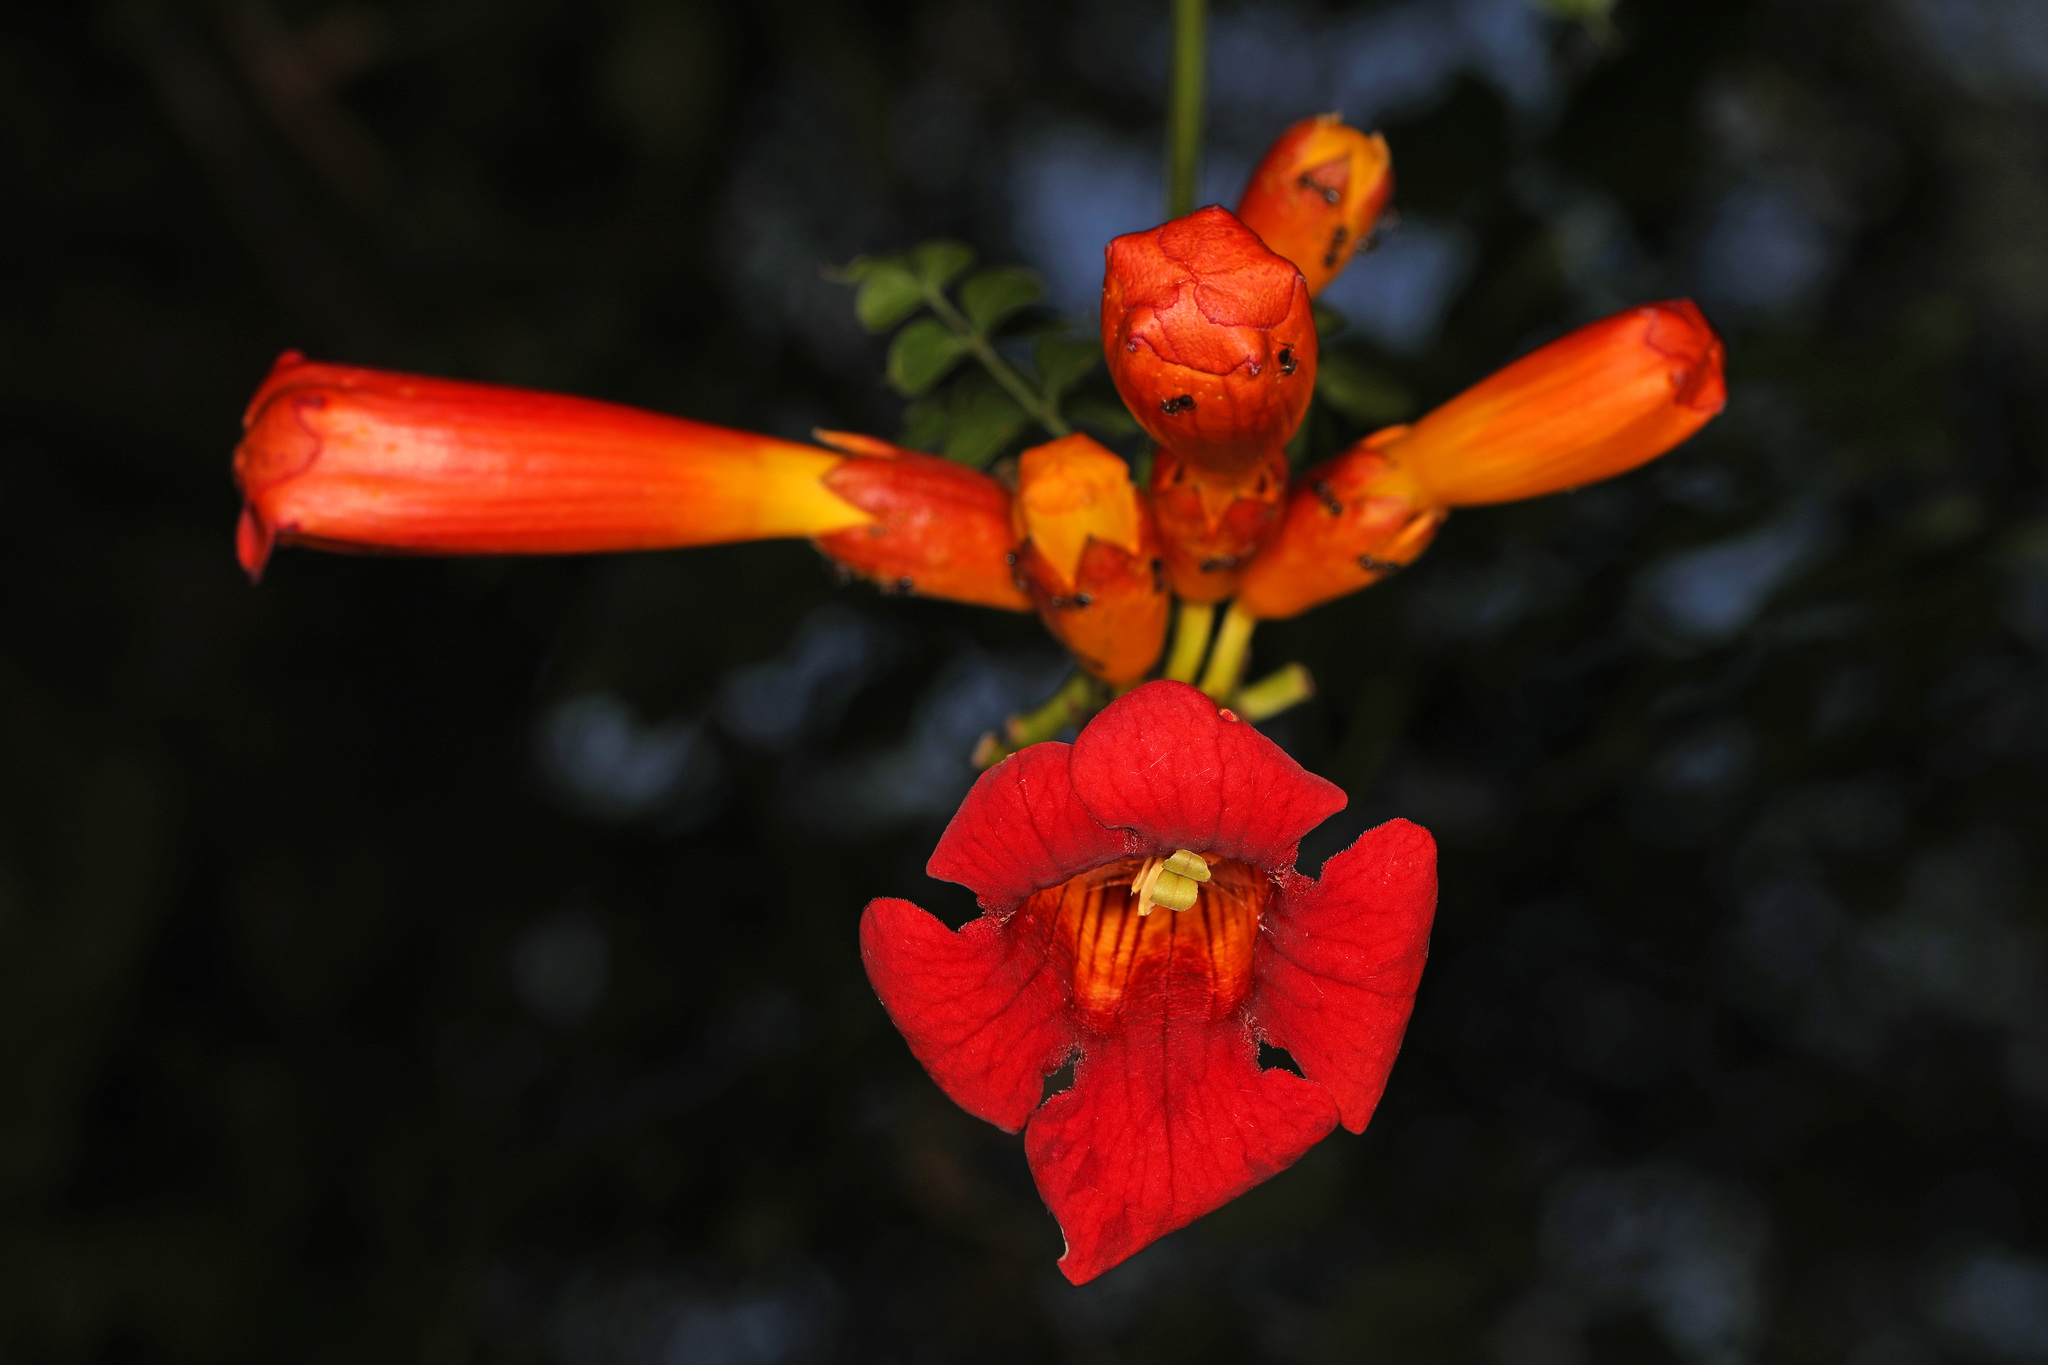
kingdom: Plantae
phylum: Tracheophyta
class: Magnoliopsida
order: Lamiales
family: Bignoniaceae
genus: Campsis
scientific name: Campsis radicans
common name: Trumpet-creeper
